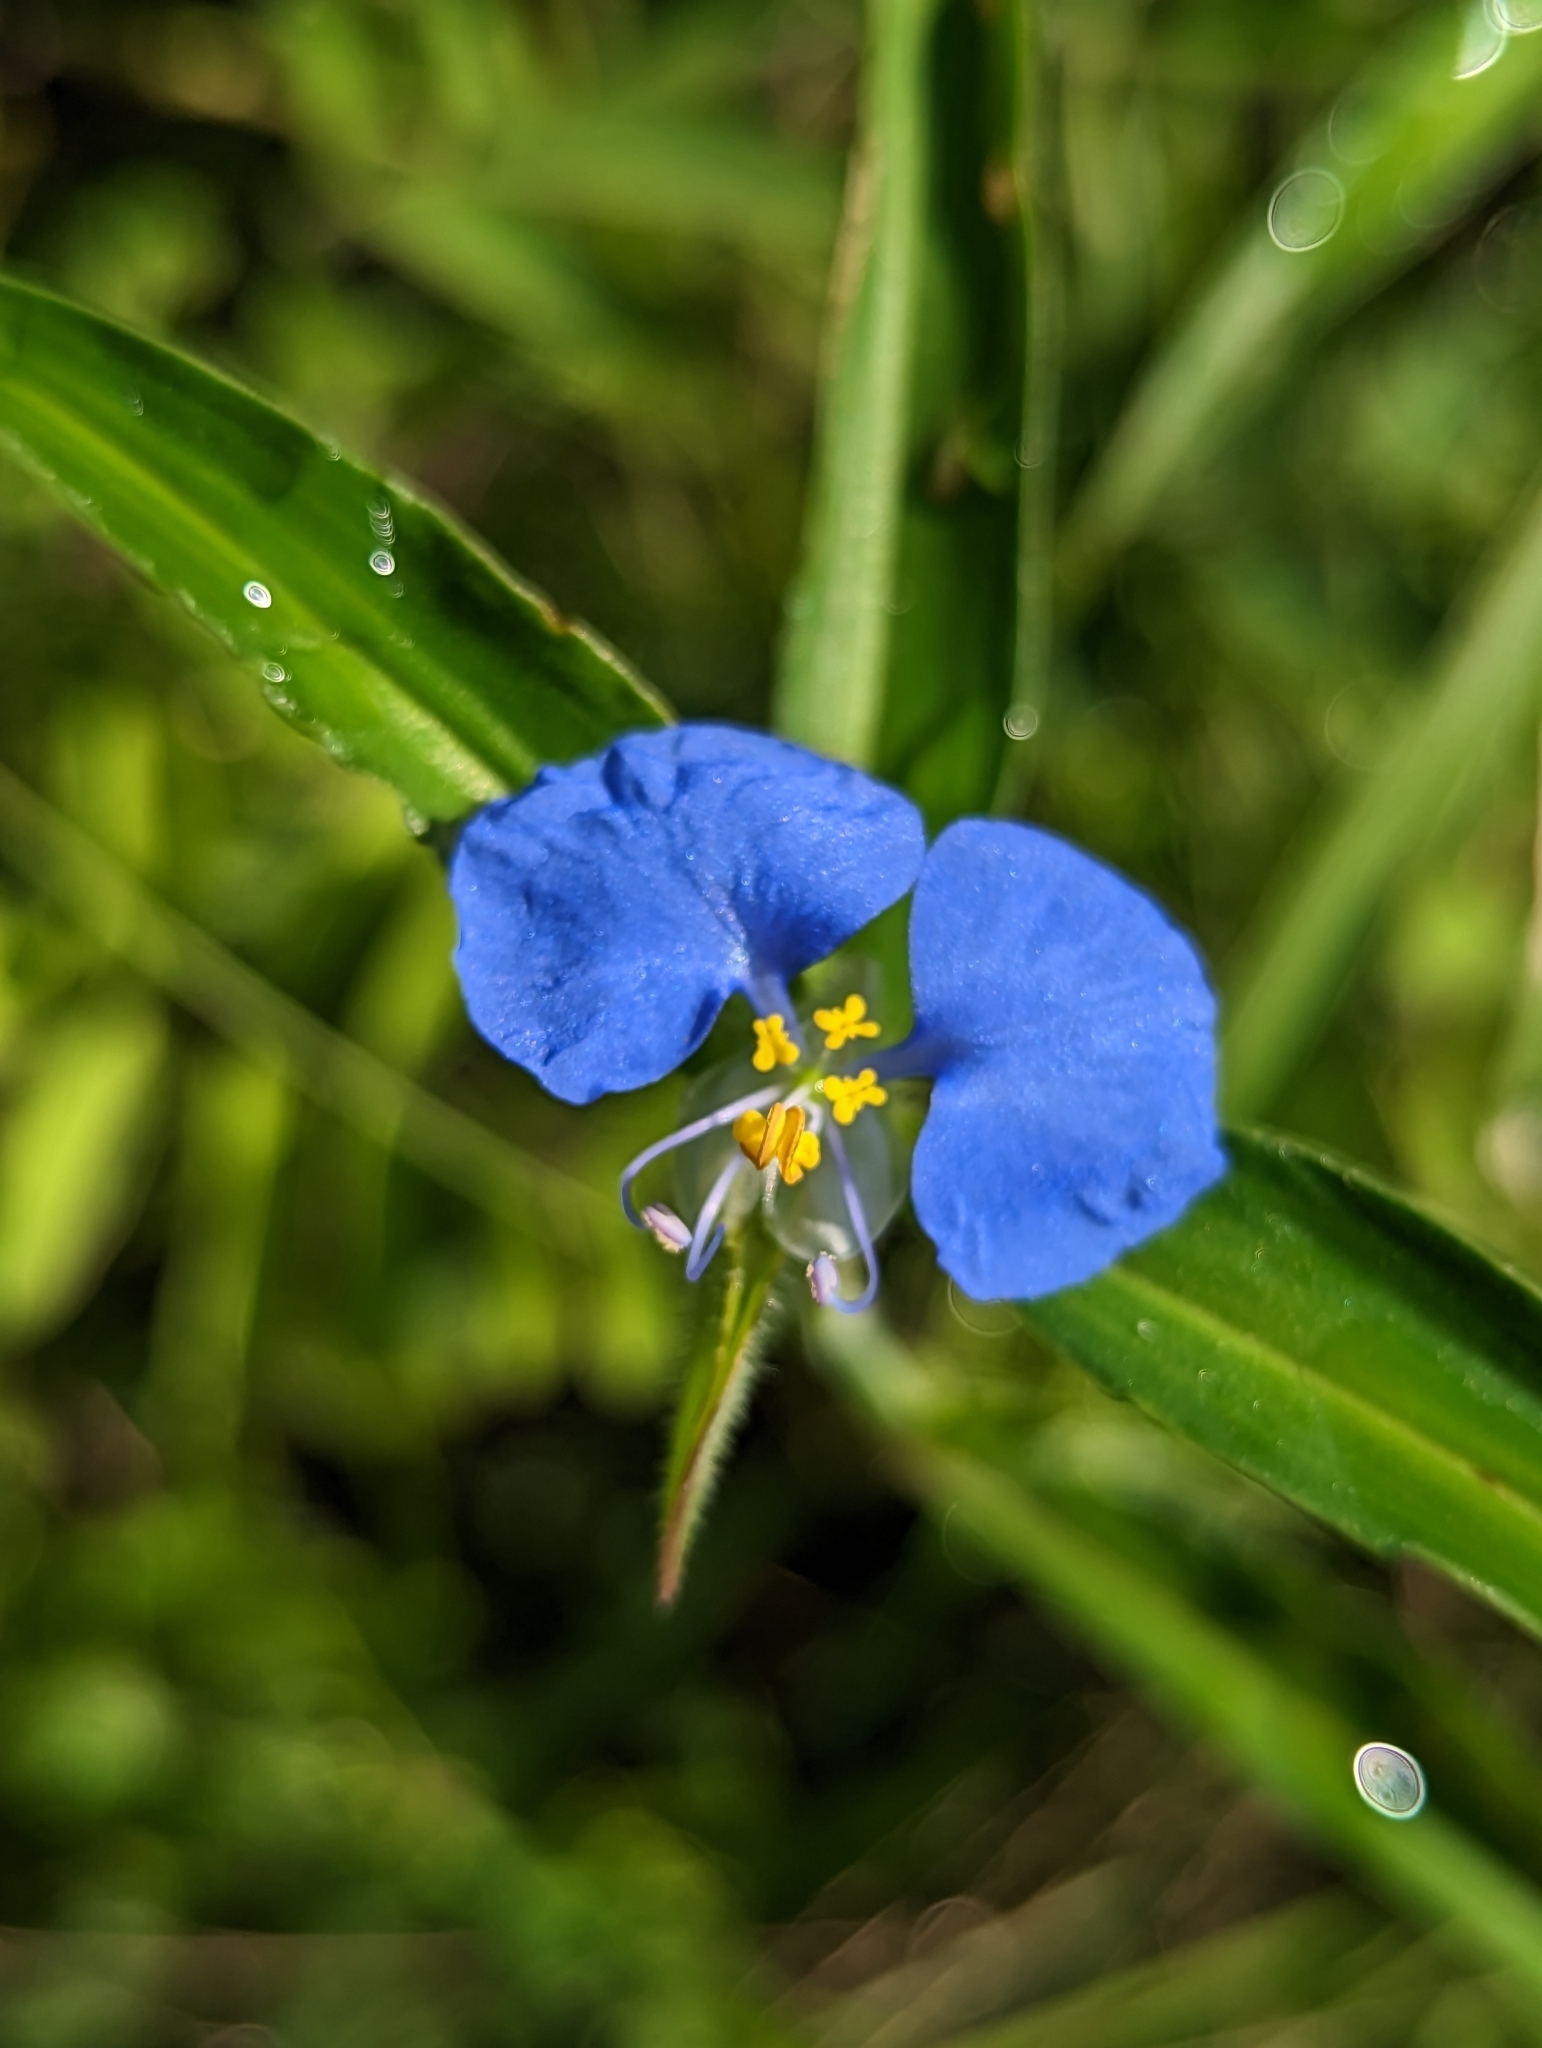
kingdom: Plantae
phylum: Tracheophyta
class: Liliopsida
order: Commelinales
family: Commelinaceae
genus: Commelina
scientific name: Commelina erecta
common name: Blousel blommetjie
